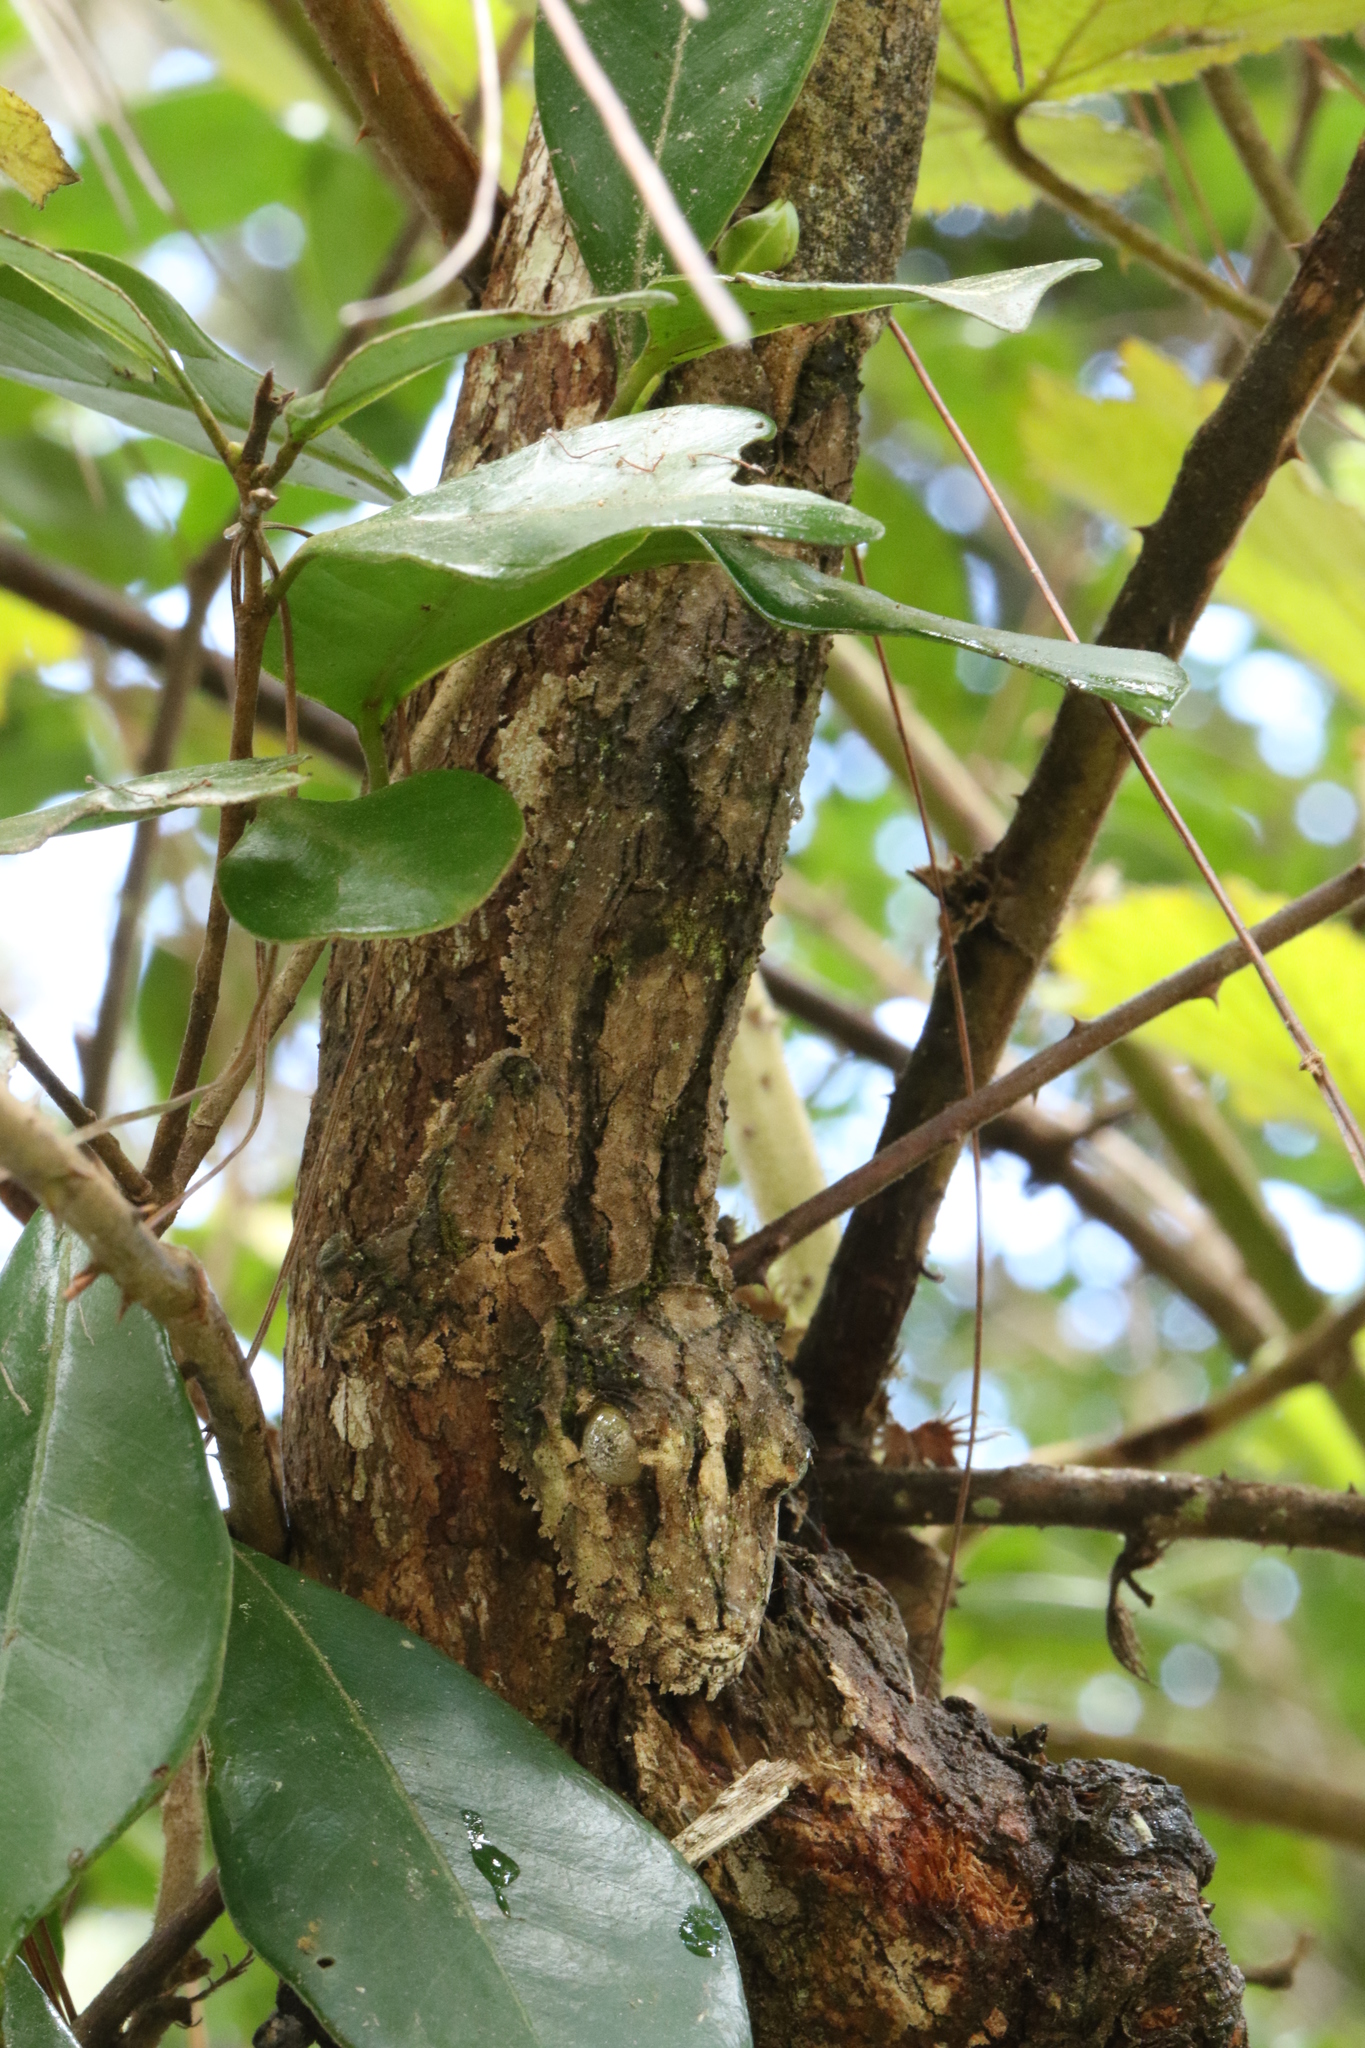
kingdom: Animalia
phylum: Chordata
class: Squamata
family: Gekkonidae
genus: Uroplatus
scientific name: Uroplatus sikorae
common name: Southern flat-tail gecko
